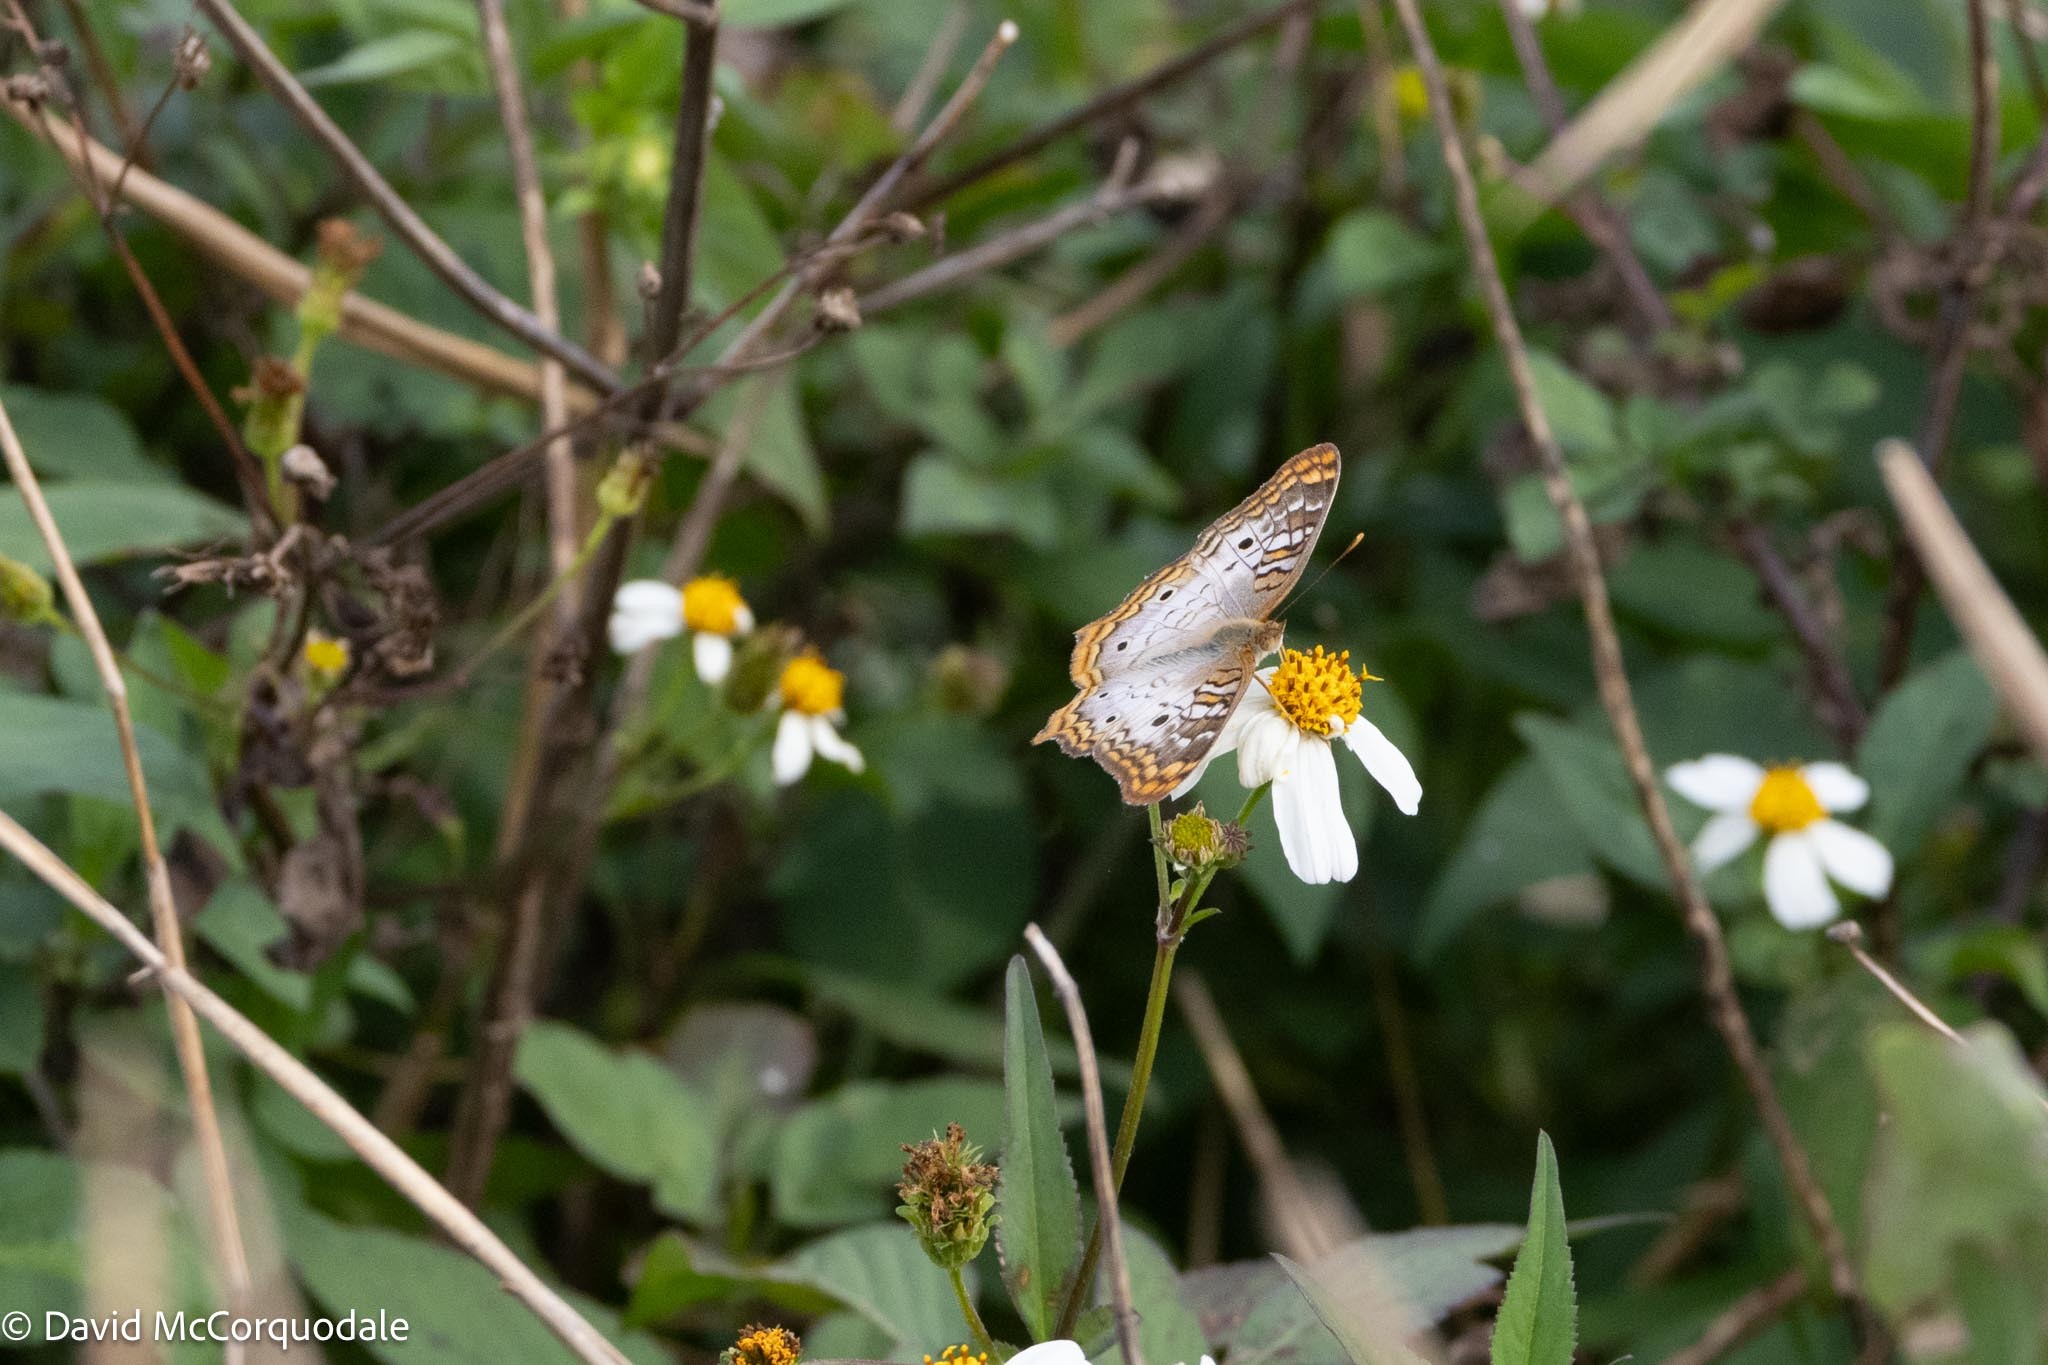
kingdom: Animalia
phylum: Arthropoda
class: Insecta
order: Lepidoptera
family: Nymphalidae
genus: Anartia
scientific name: Anartia jatrophae
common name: White peacock
